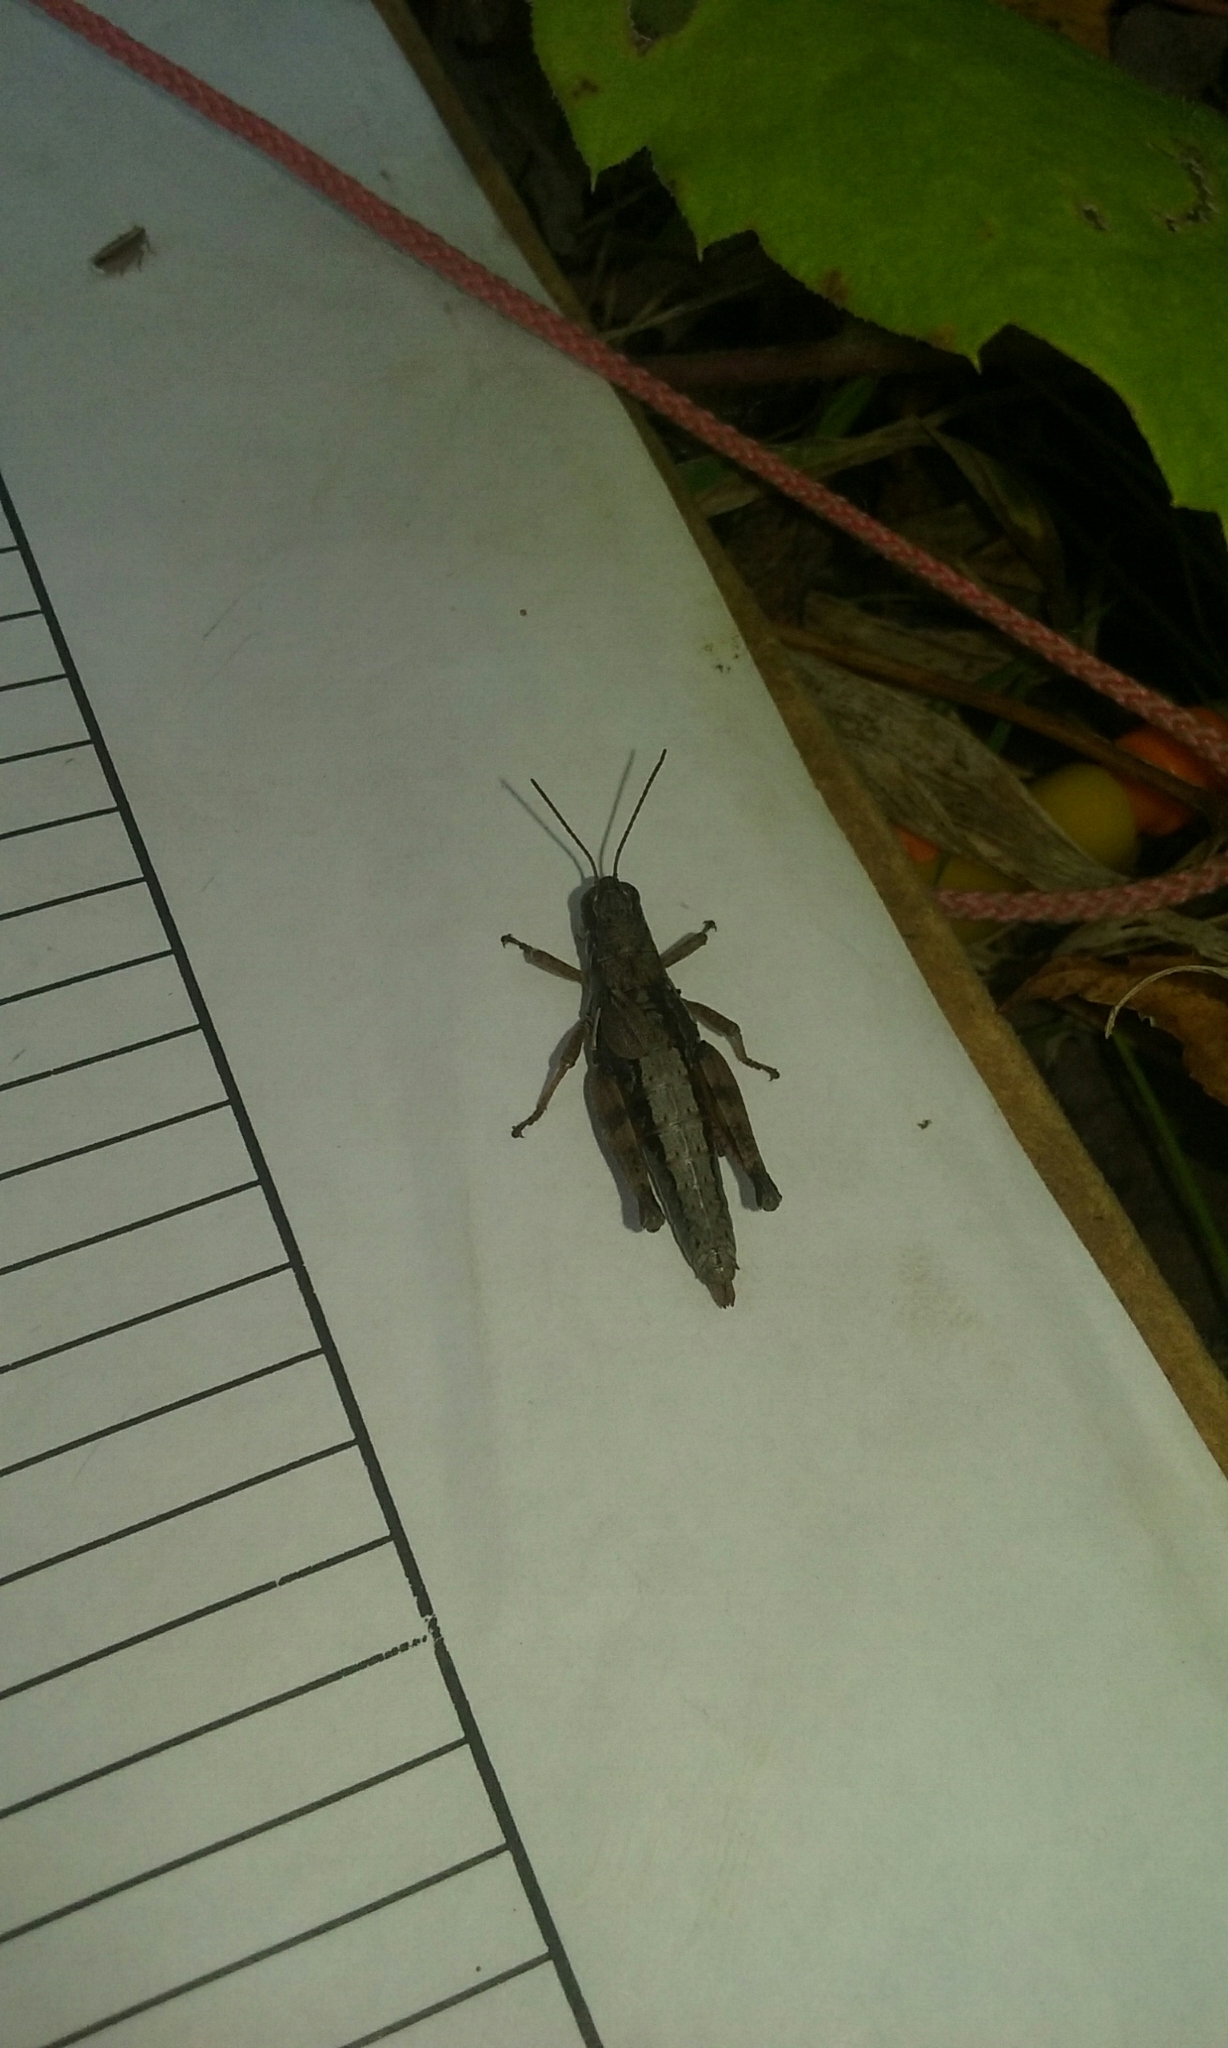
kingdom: Animalia
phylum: Arthropoda
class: Insecta
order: Orthoptera
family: Acrididae
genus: Melanoplus
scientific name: Melanoplus islandicus
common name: Island locust
